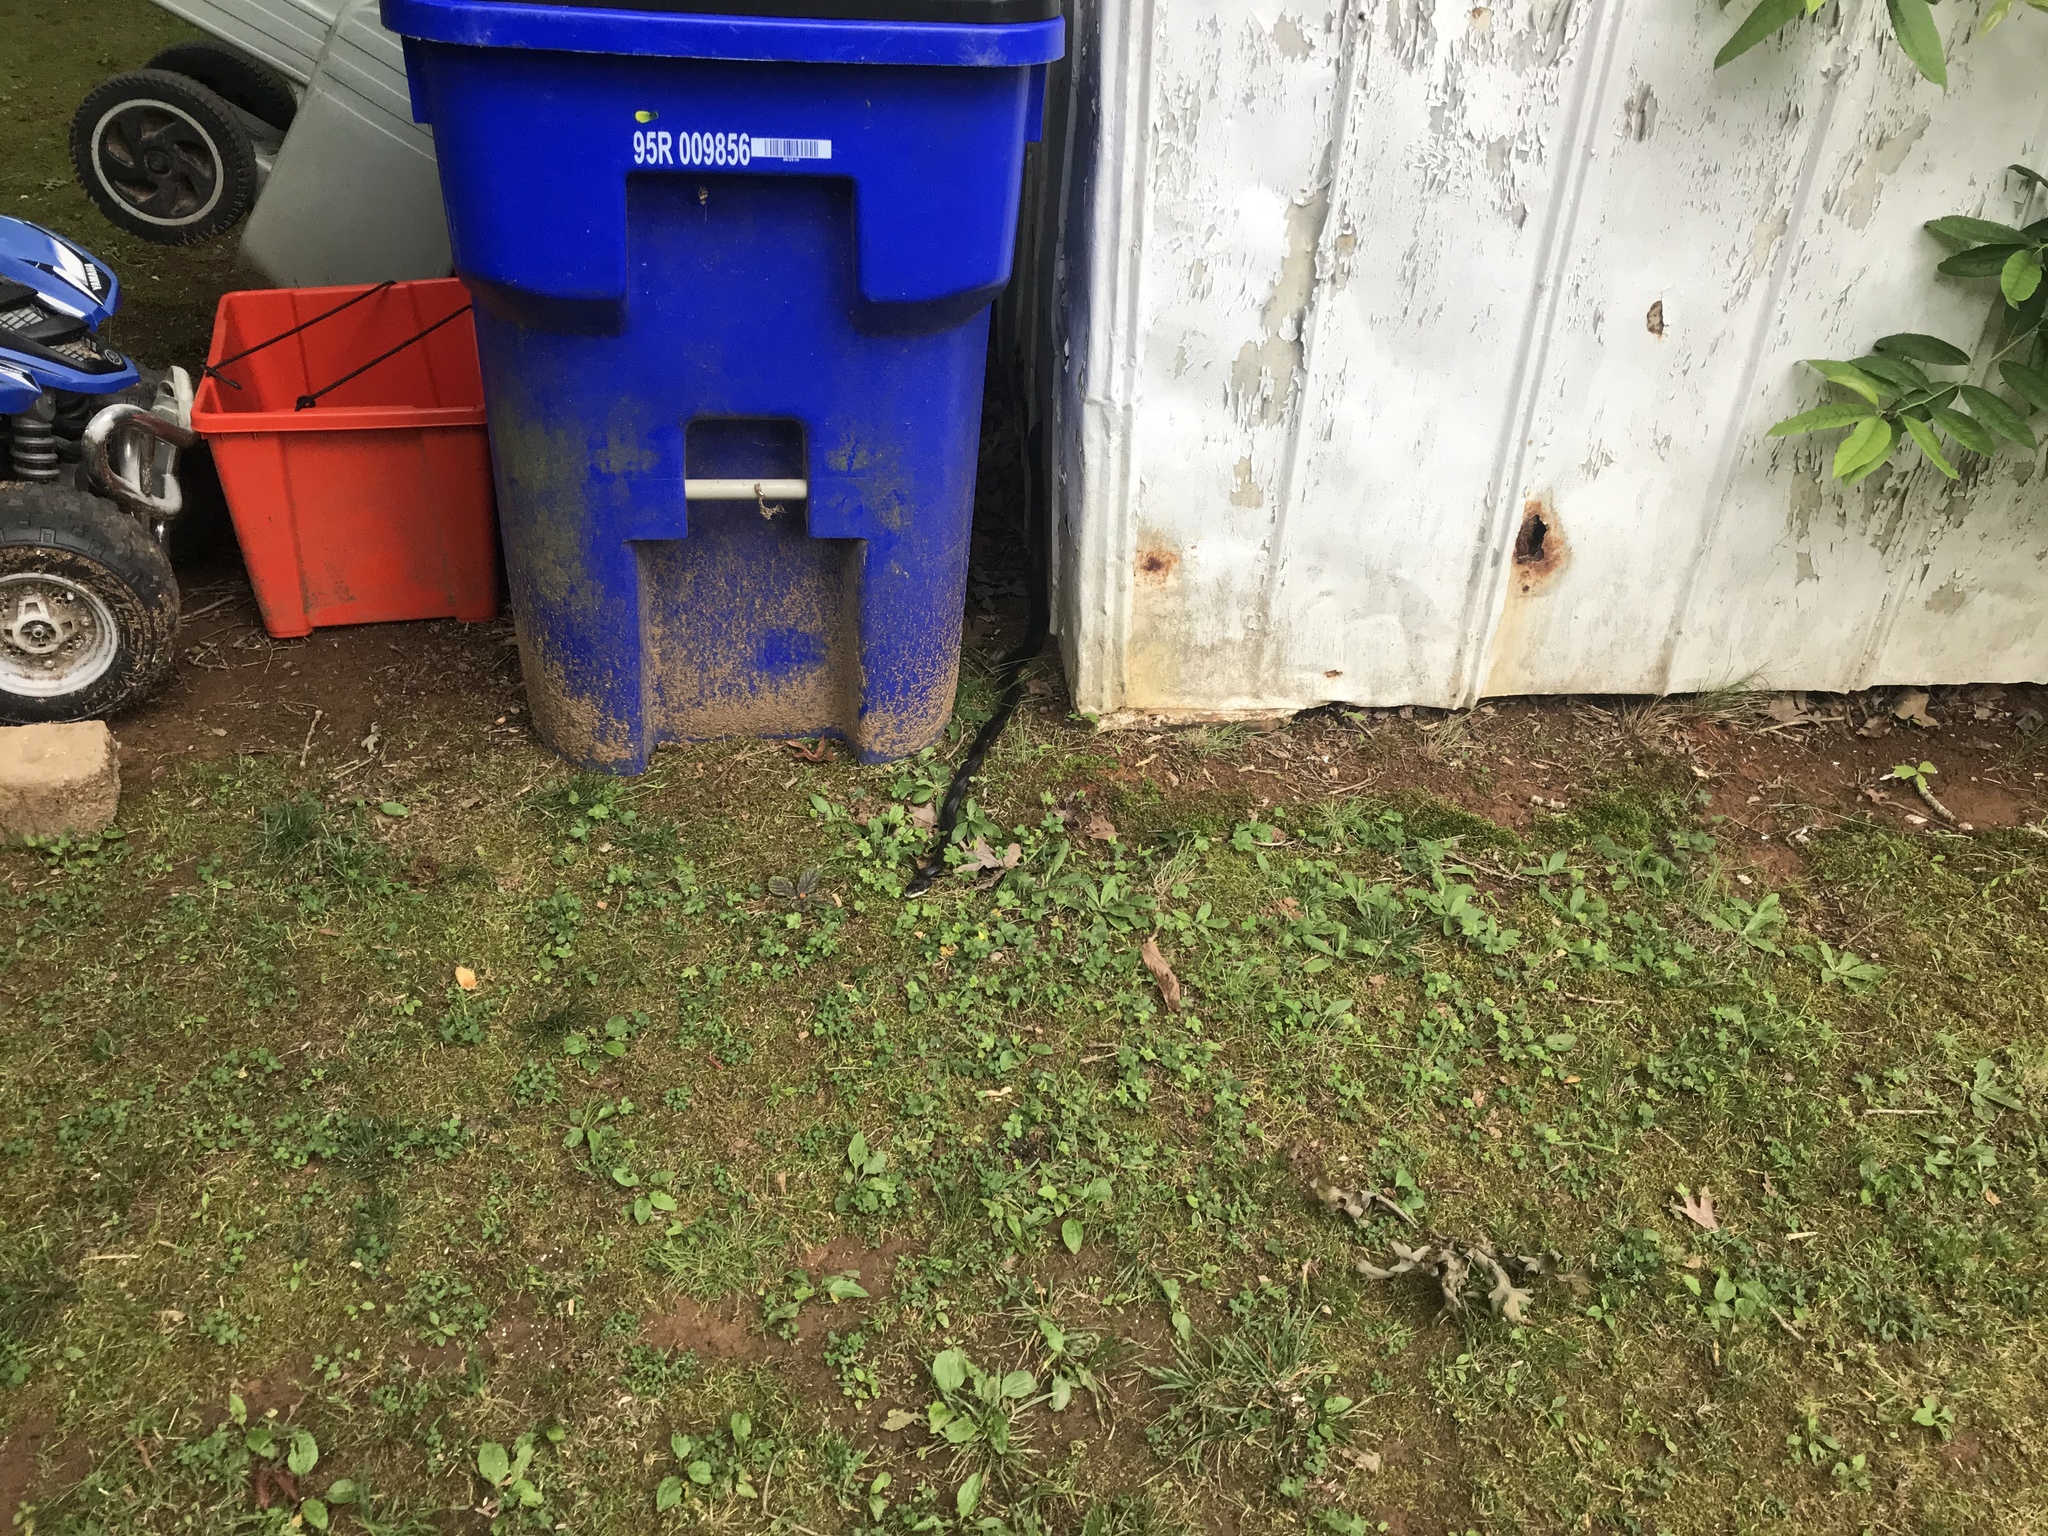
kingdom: Animalia
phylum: Chordata
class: Squamata
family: Colubridae
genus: Pantherophis
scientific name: Pantherophis alleghaniensis
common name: Eastern rat snake
